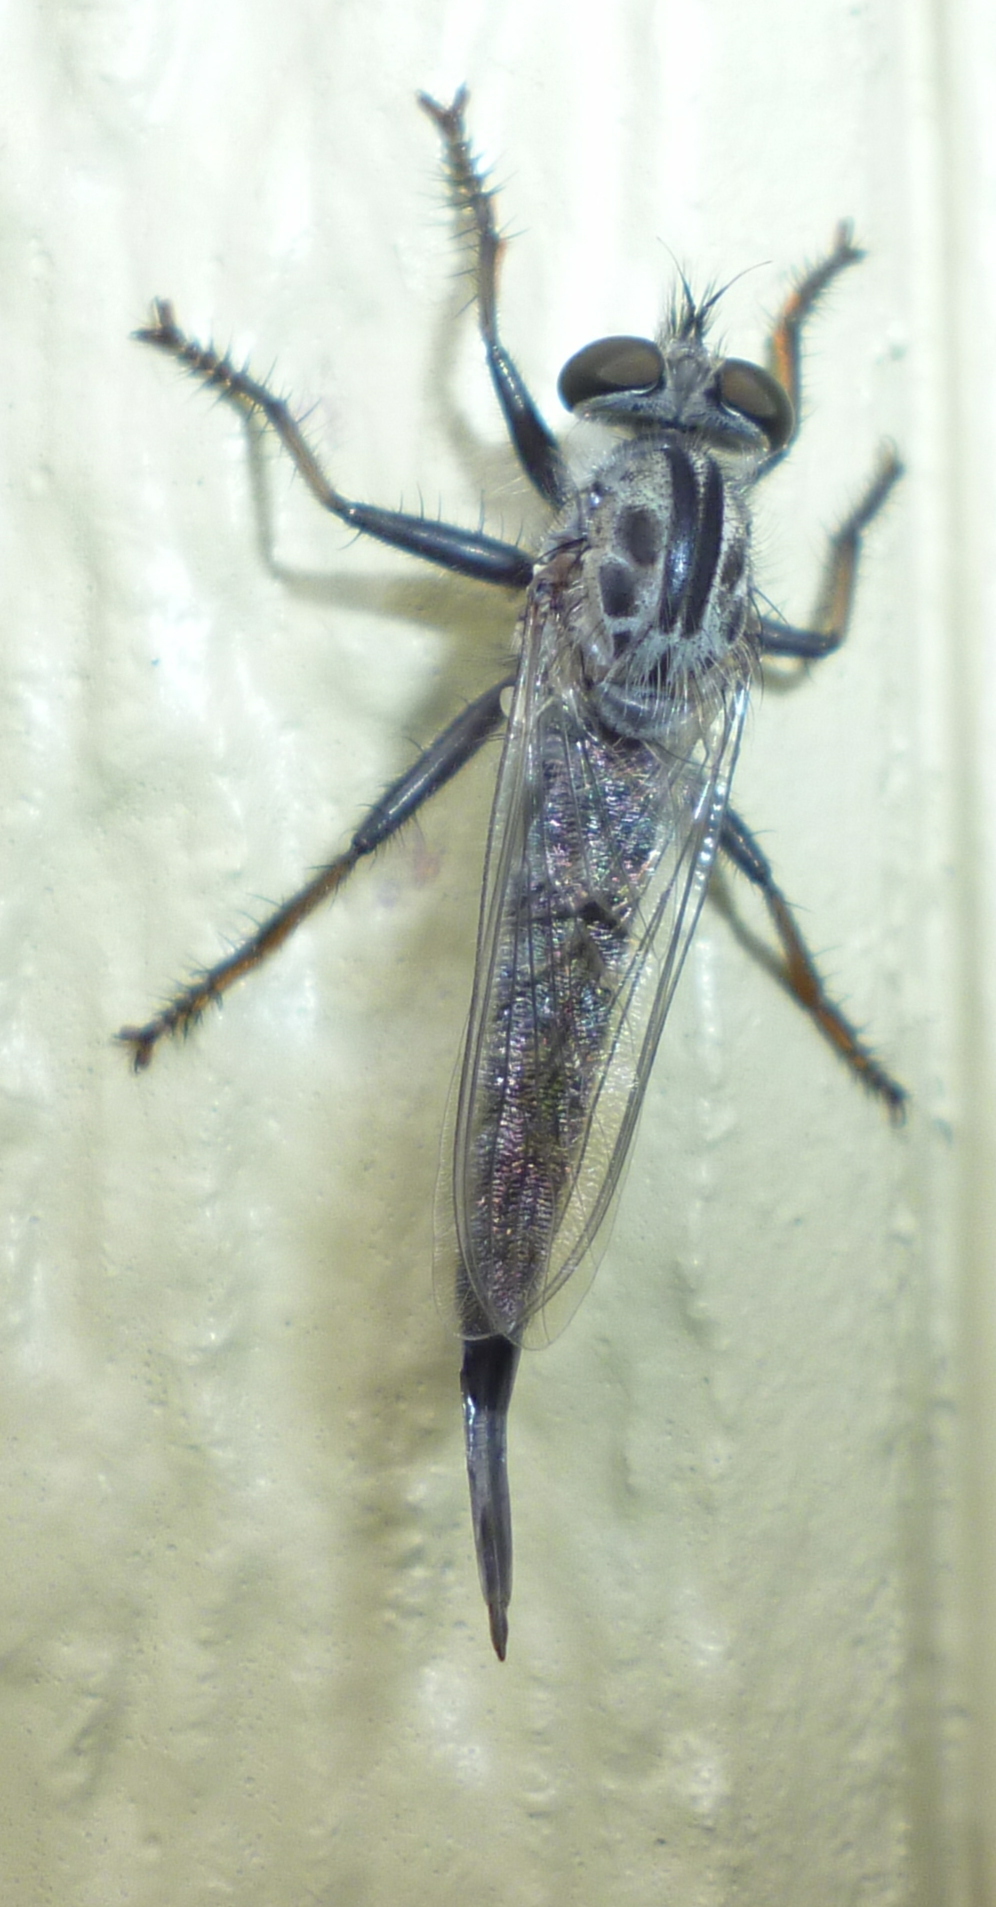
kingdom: Animalia
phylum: Arthropoda
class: Insecta
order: Diptera
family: Asilidae
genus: Efferia
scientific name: Efferia aestuans
